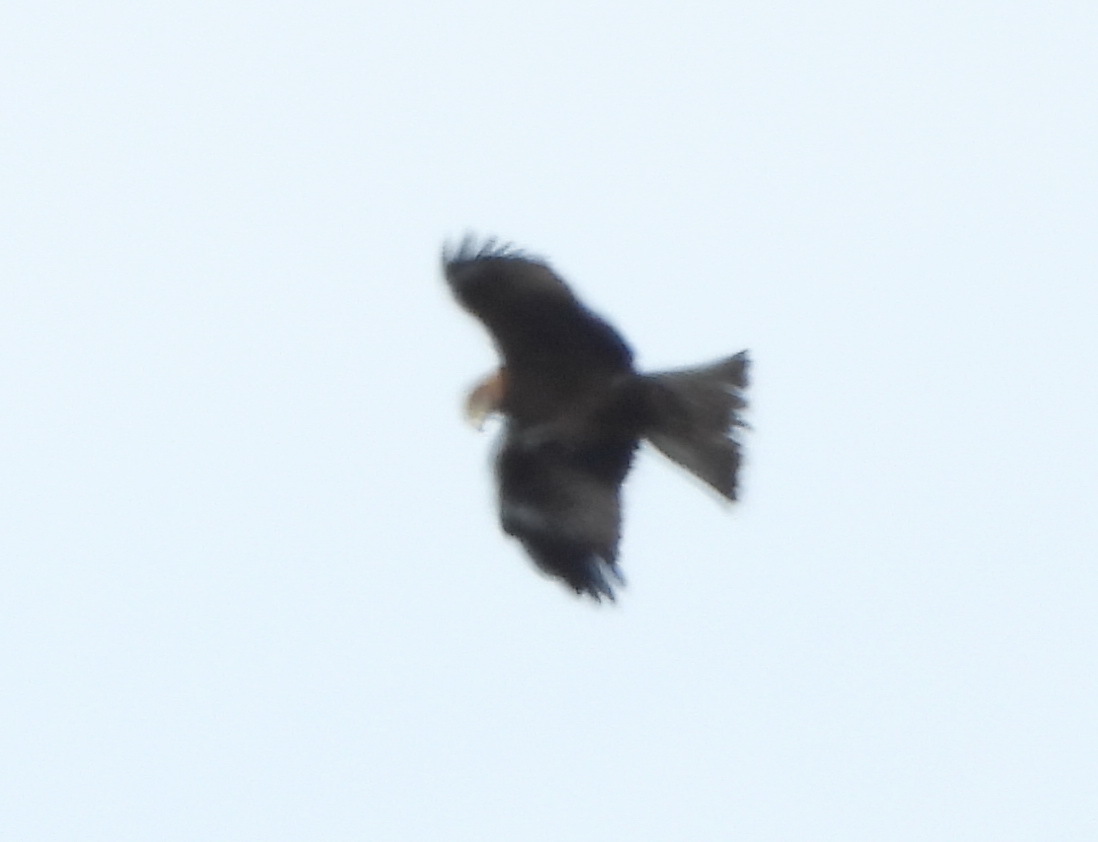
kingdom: Animalia
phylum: Chordata
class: Aves
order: Accipitriformes
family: Accipitridae
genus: Milvus
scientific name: Milvus migrans
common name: Black kite
